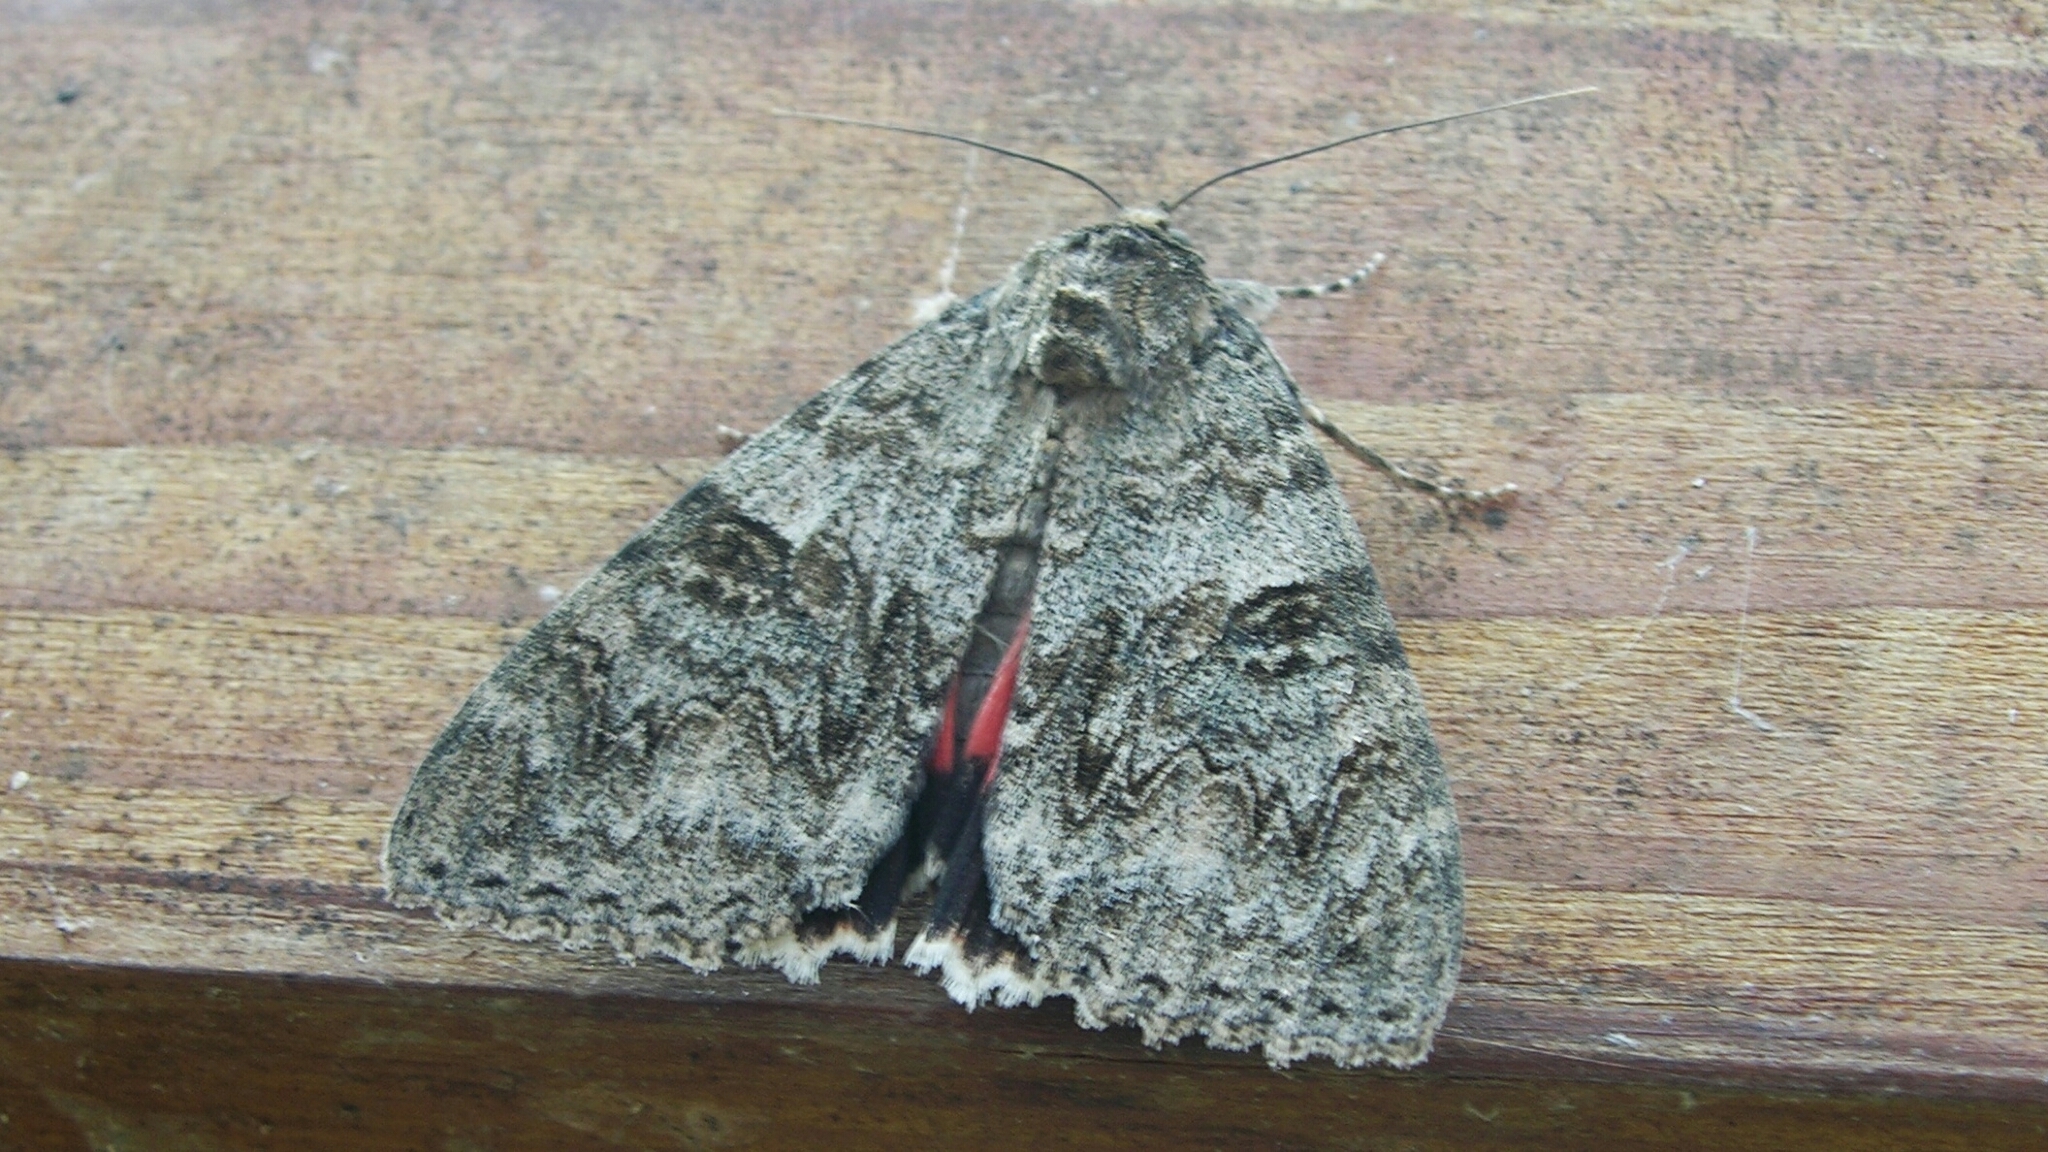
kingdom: Animalia
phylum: Arthropoda
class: Insecta
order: Lepidoptera
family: Erebidae
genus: Catocala
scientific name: Catocala nupta
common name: Red underwing
